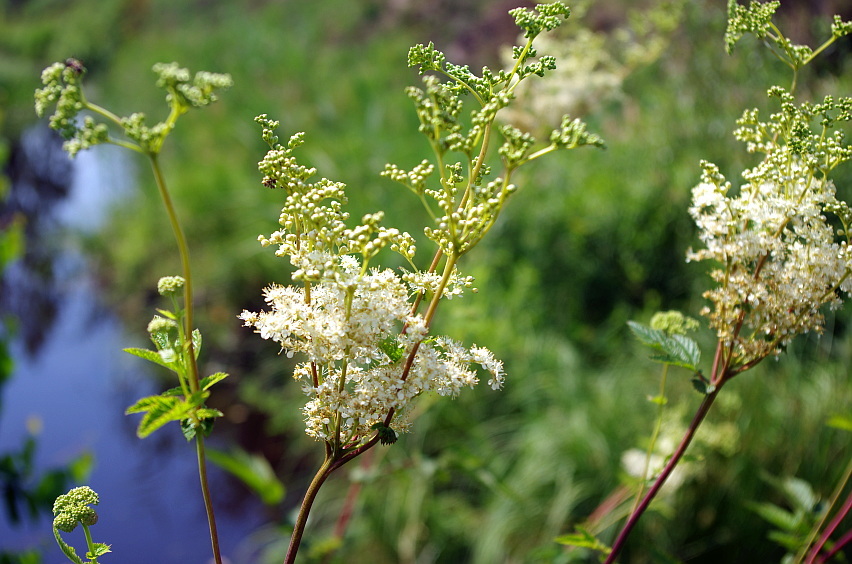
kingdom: Plantae
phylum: Tracheophyta
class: Magnoliopsida
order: Rosales
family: Rosaceae
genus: Filipendula
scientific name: Filipendula ulmaria
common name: Meadowsweet
